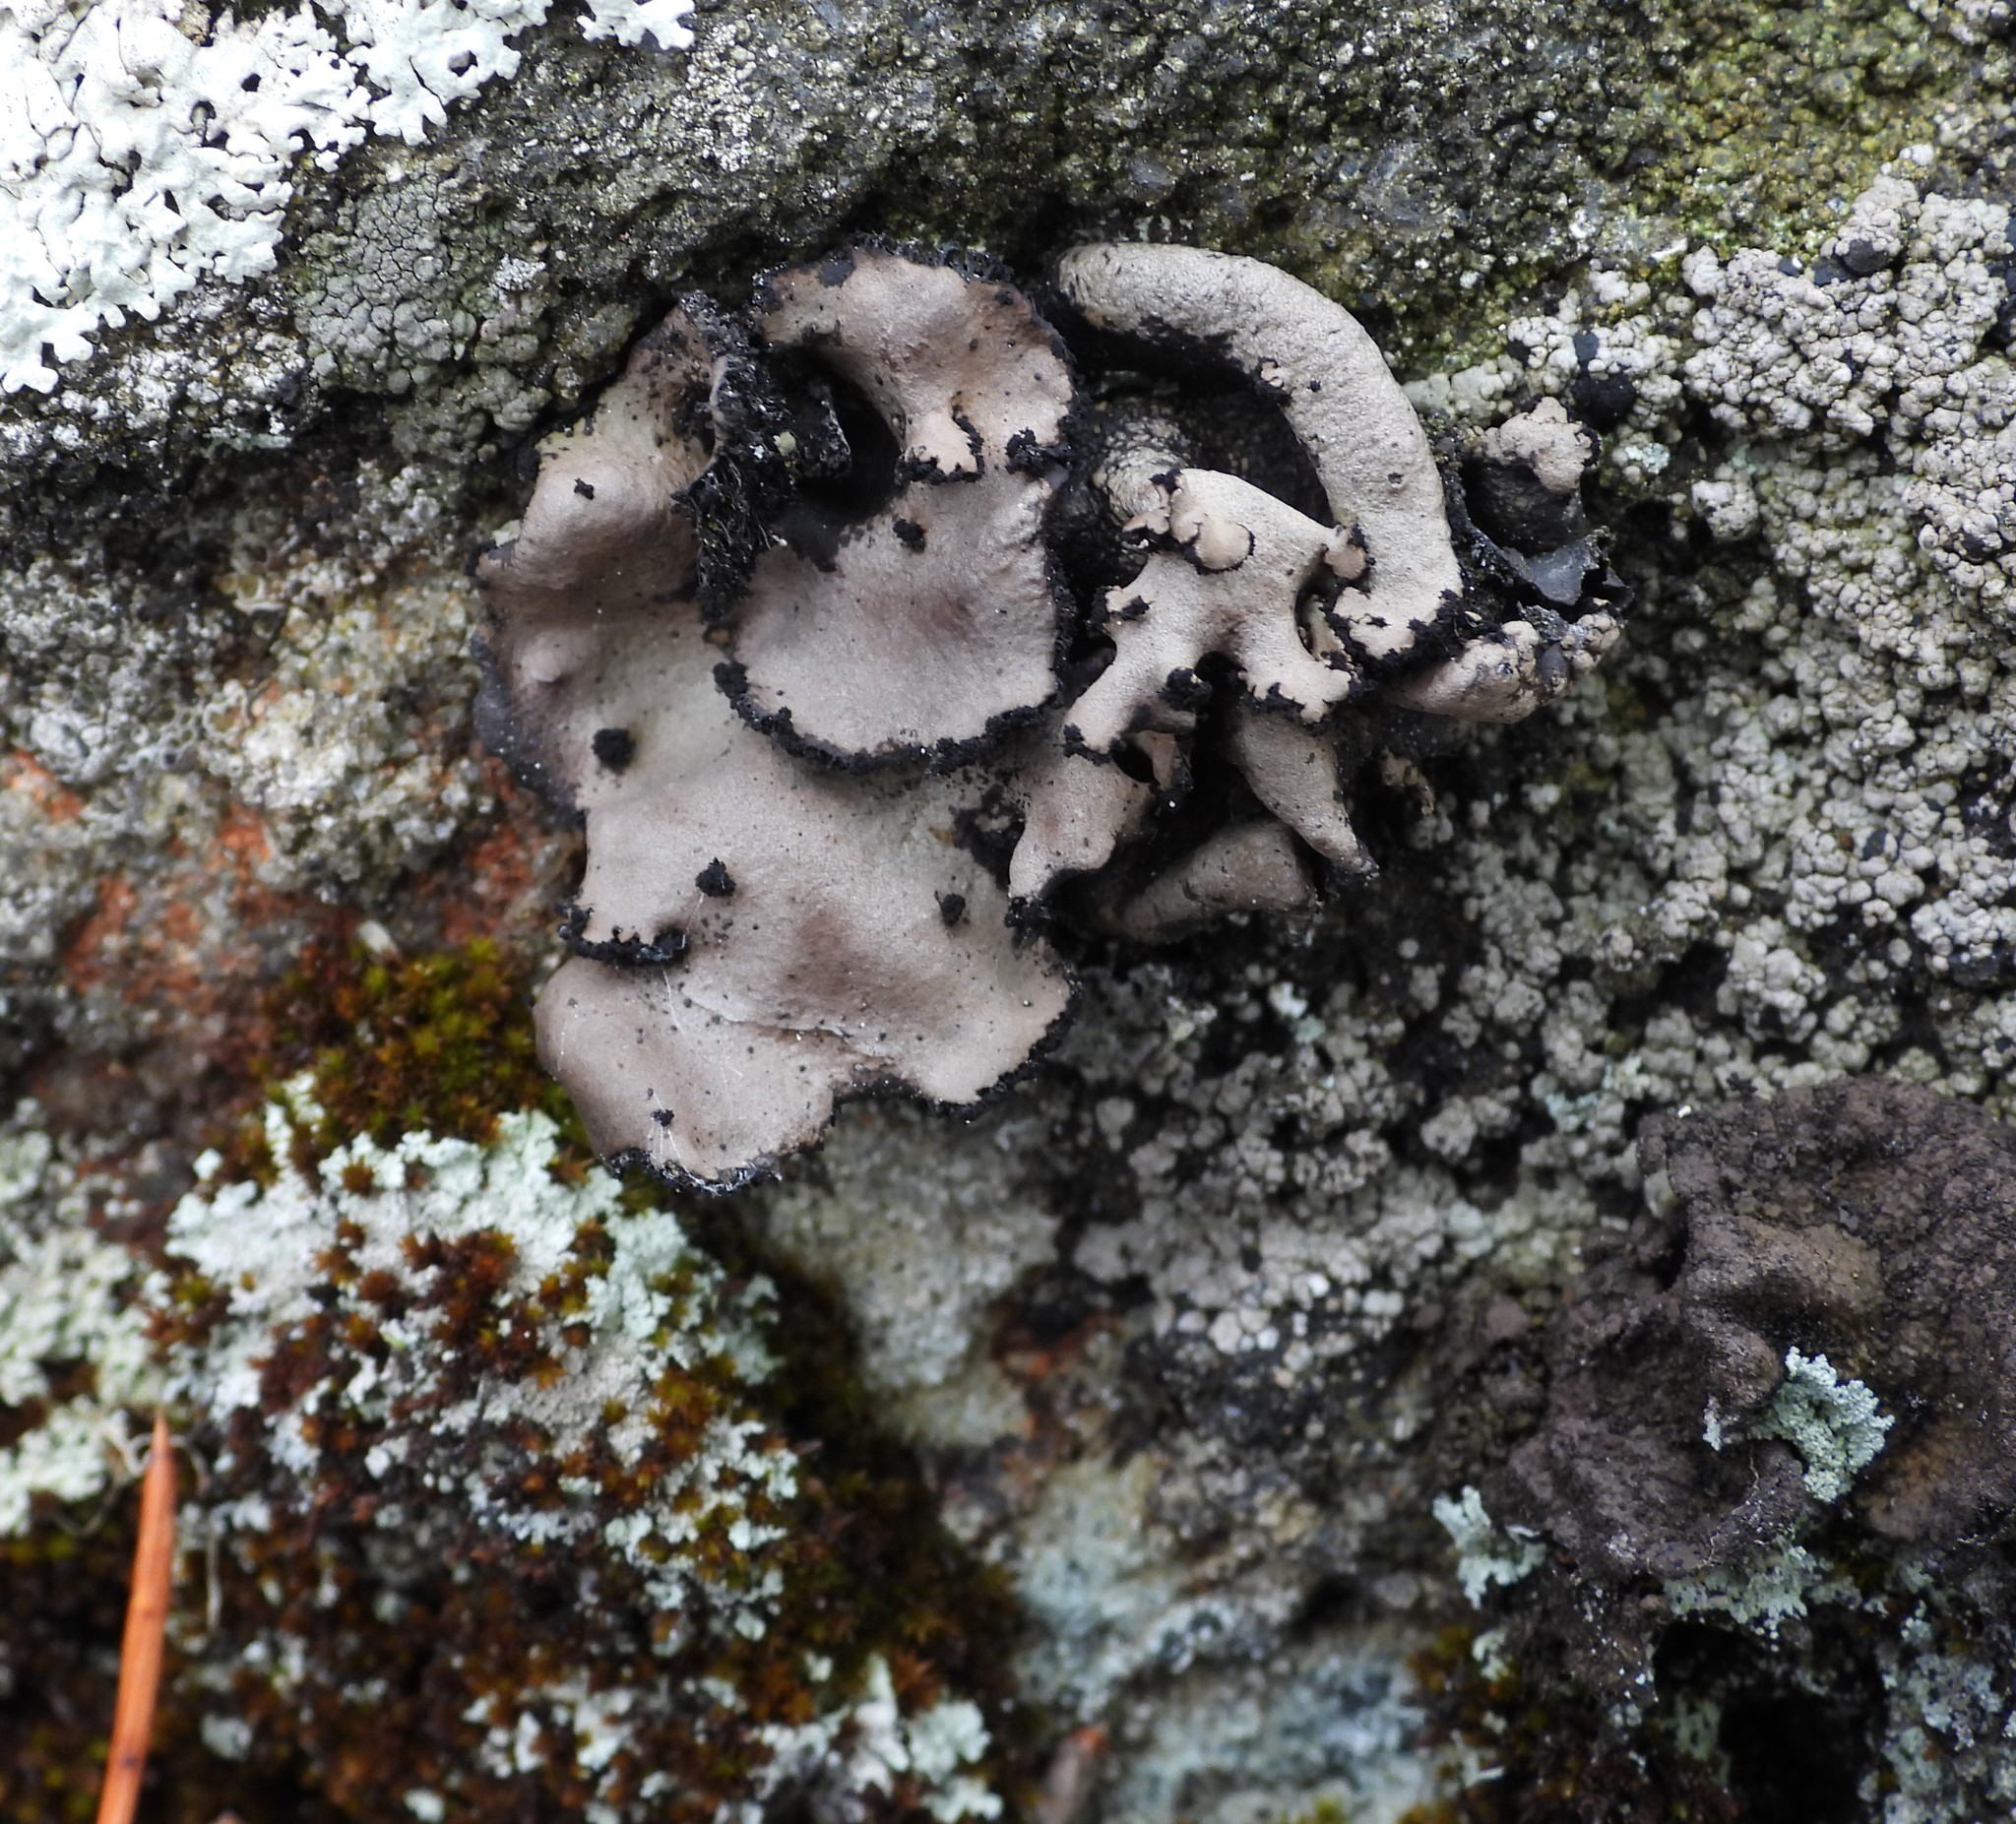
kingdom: Fungi
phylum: Ascomycota
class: Lecanoromycetes
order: Umbilicariales
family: Umbilicariaceae
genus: Umbilicaria
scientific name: Umbilicaria polyrrhiza
